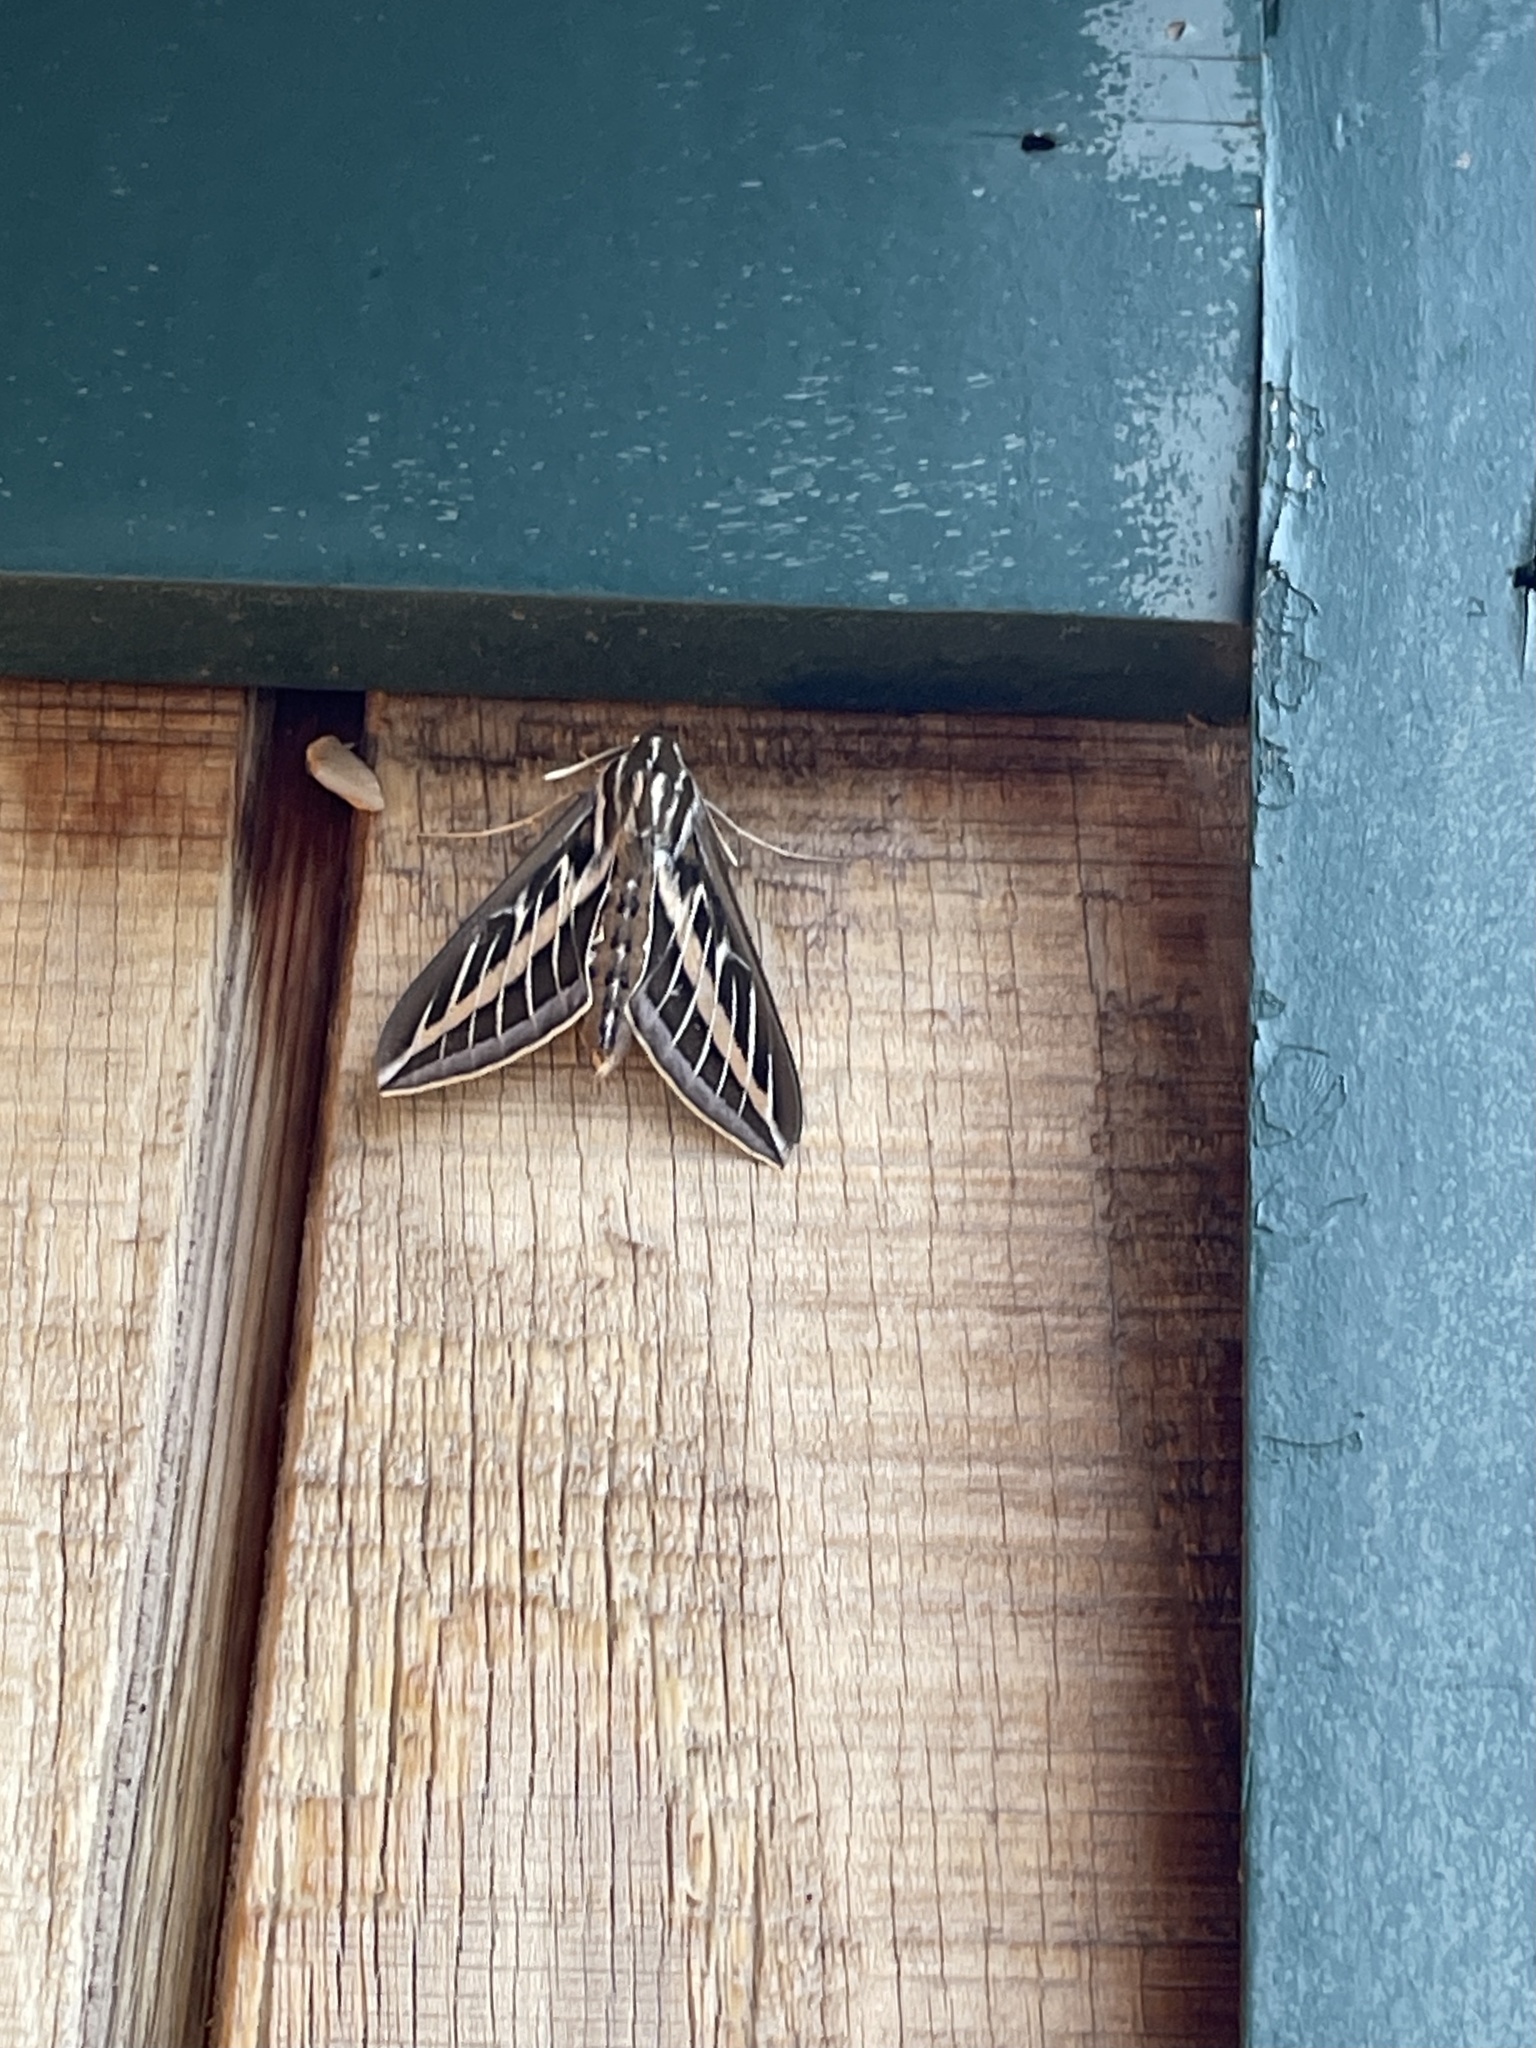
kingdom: Animalia
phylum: Arthropoda
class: Insecta
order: Lepidoptera
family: Sphingidae
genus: Hyles
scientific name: Hyles lineata
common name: White-lined sphinx
